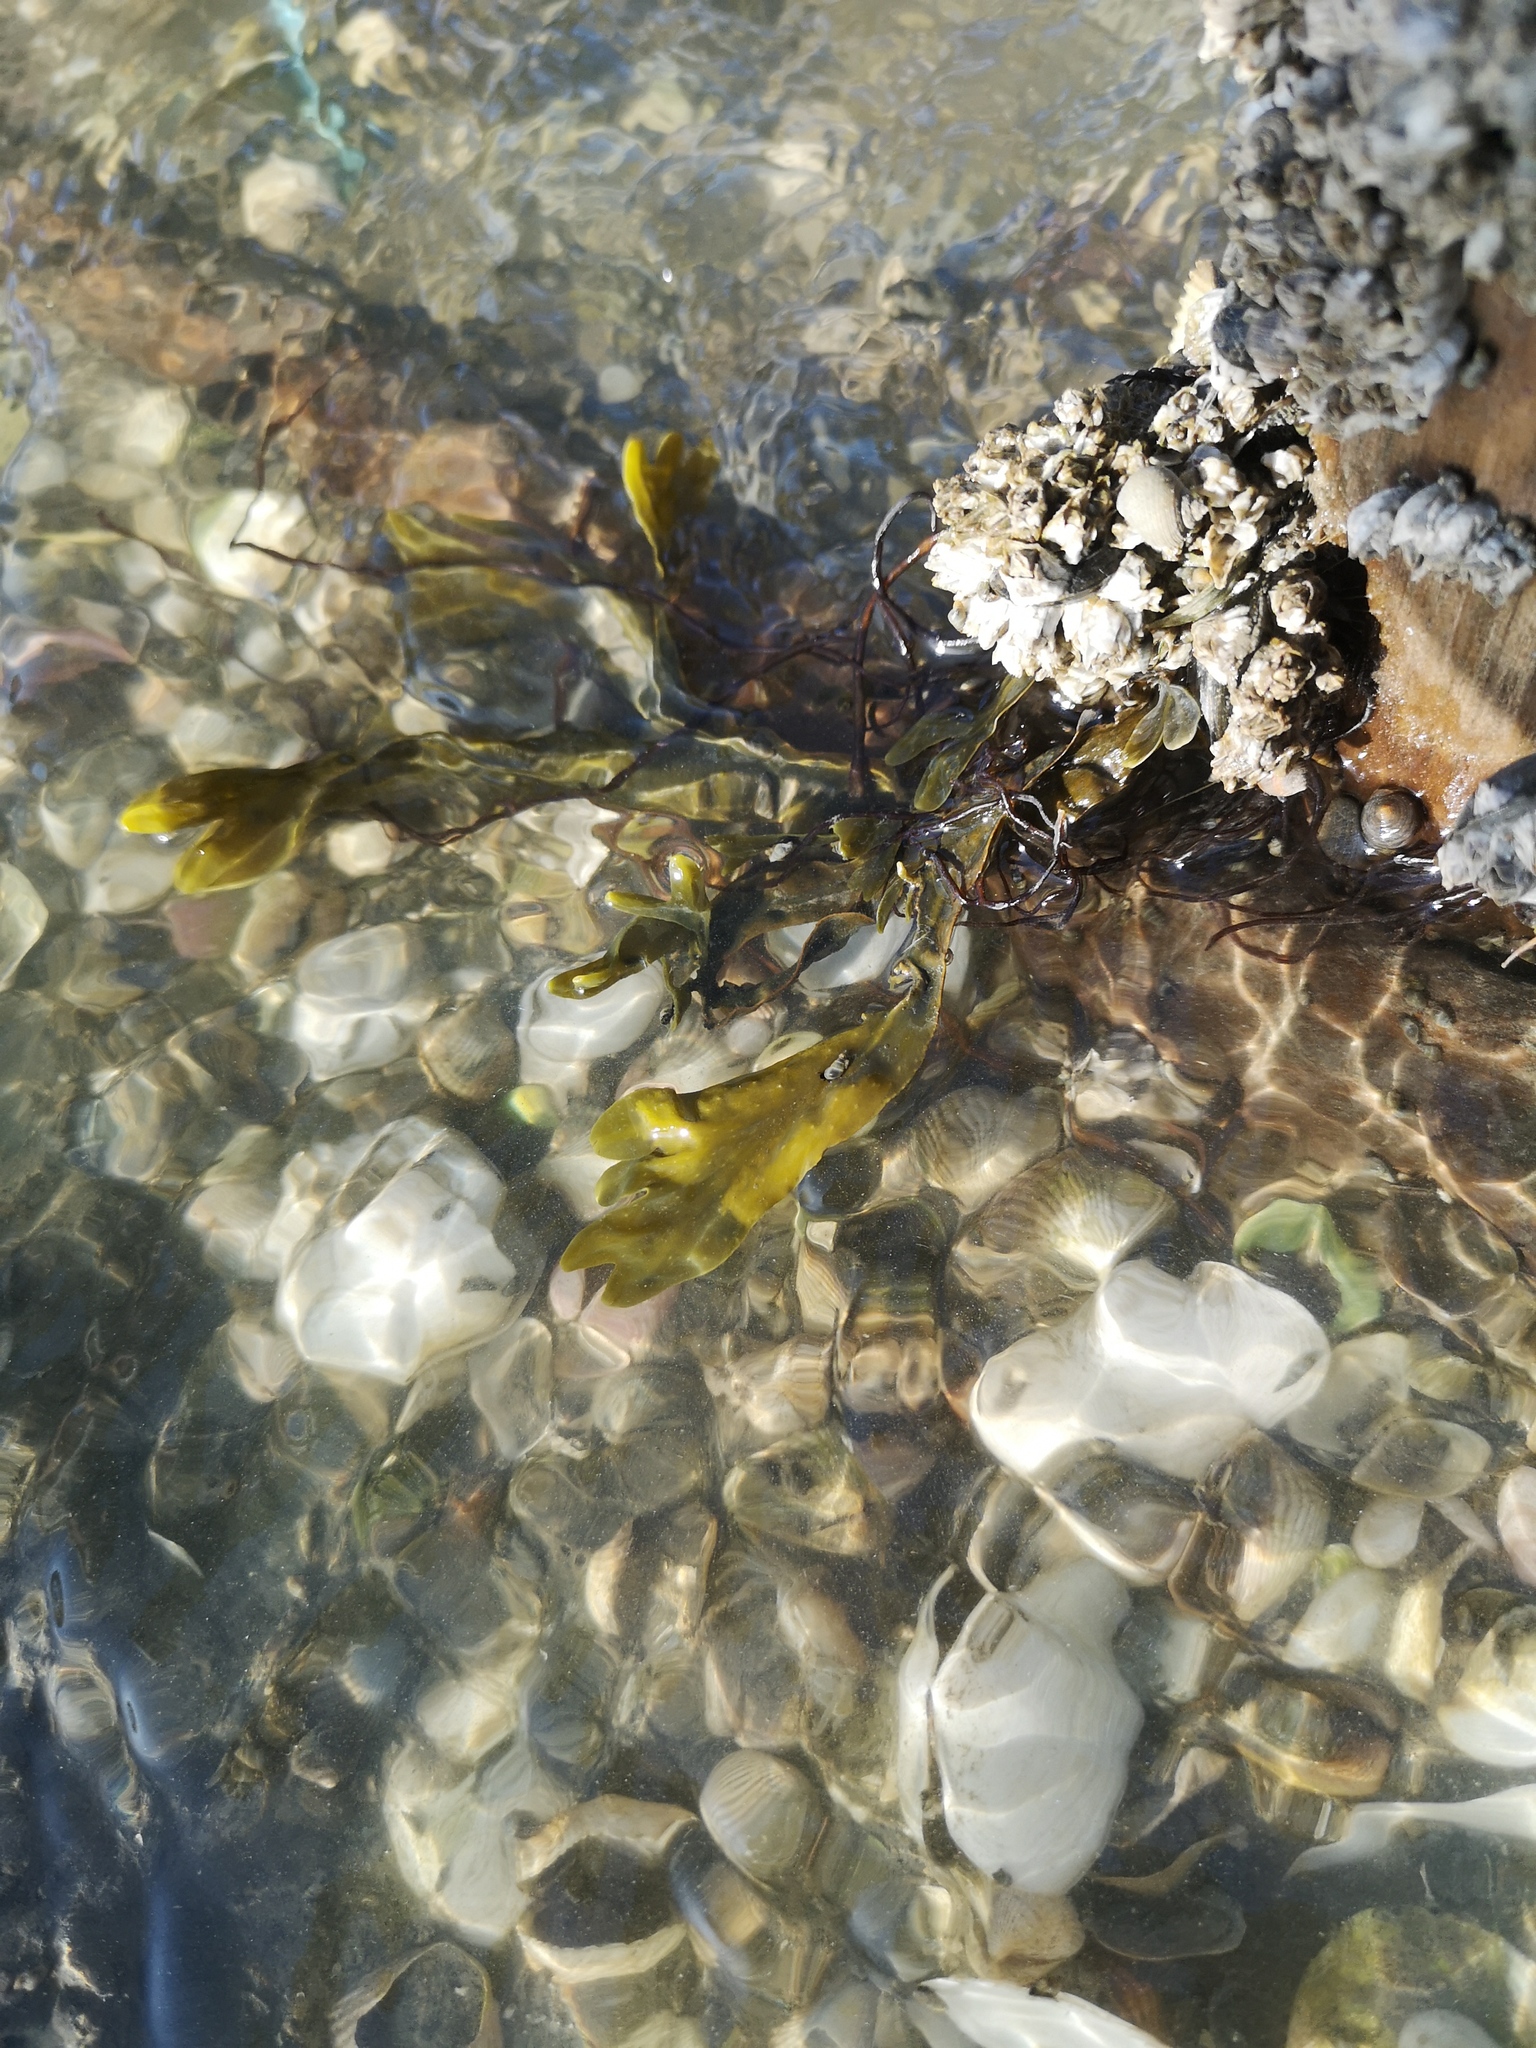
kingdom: Chromista
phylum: Ochrophyta
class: Phaeophyceae
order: Fucales
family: Fucaceae
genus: Fucus
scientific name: Fucus vesiculosus
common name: Bladder wrack
